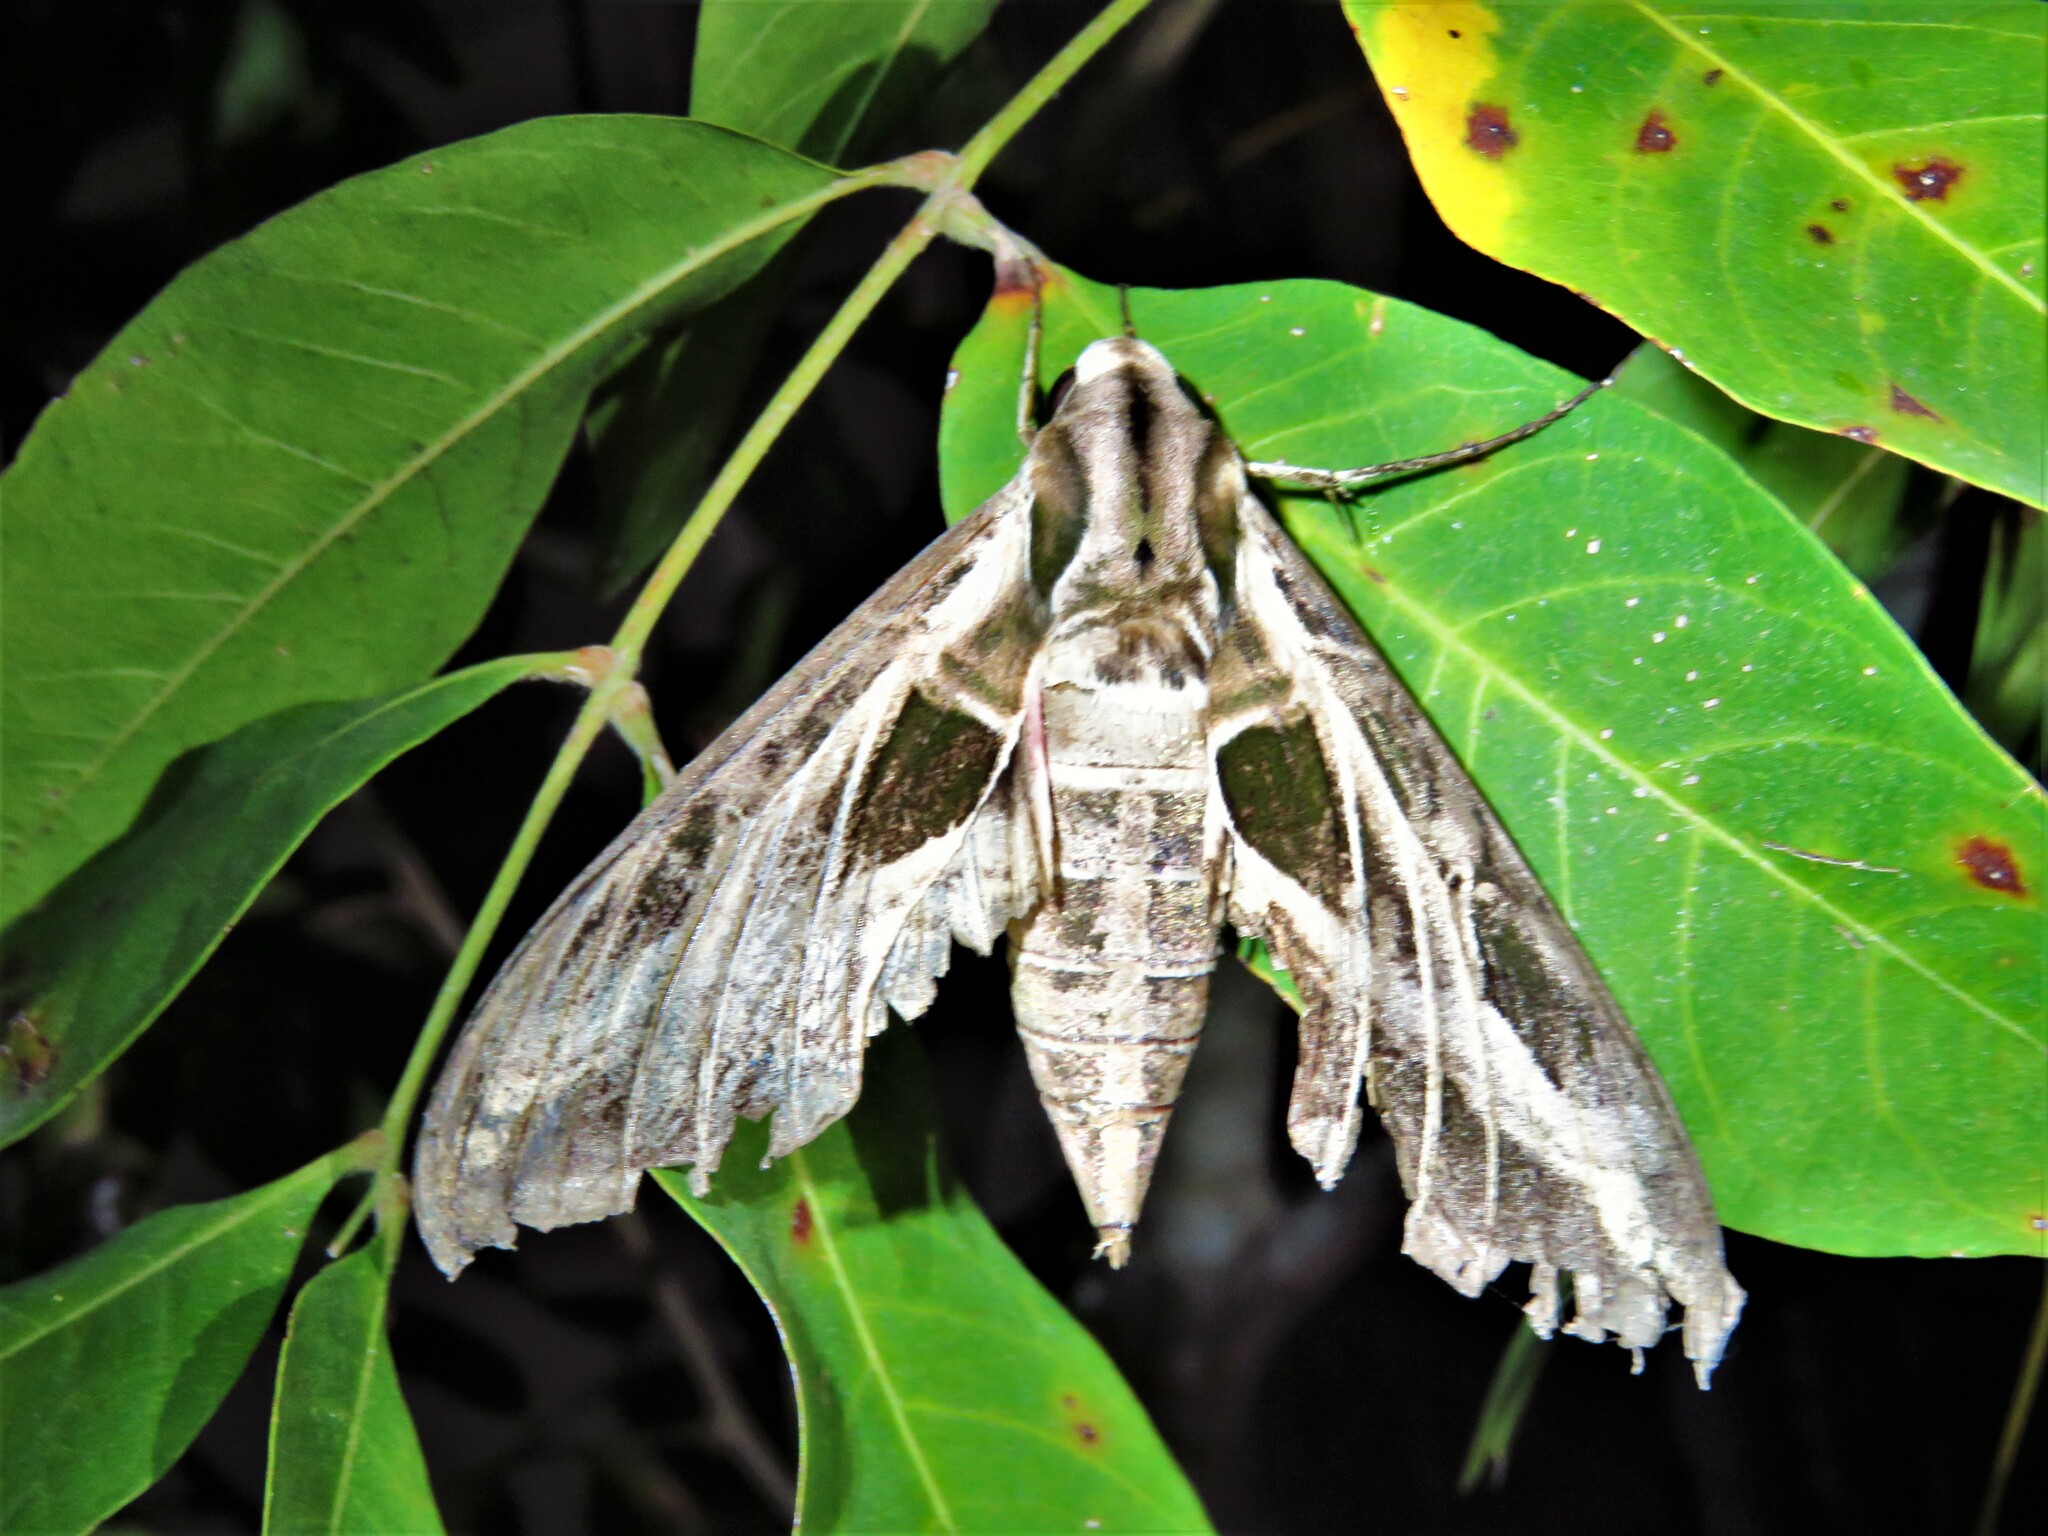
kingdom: Animalia
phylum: Arthropoda
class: Insecta
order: Lepidoptera
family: Sphingidae
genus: Eumorpha
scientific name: Eumorpha vitis
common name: Vine sphinx
